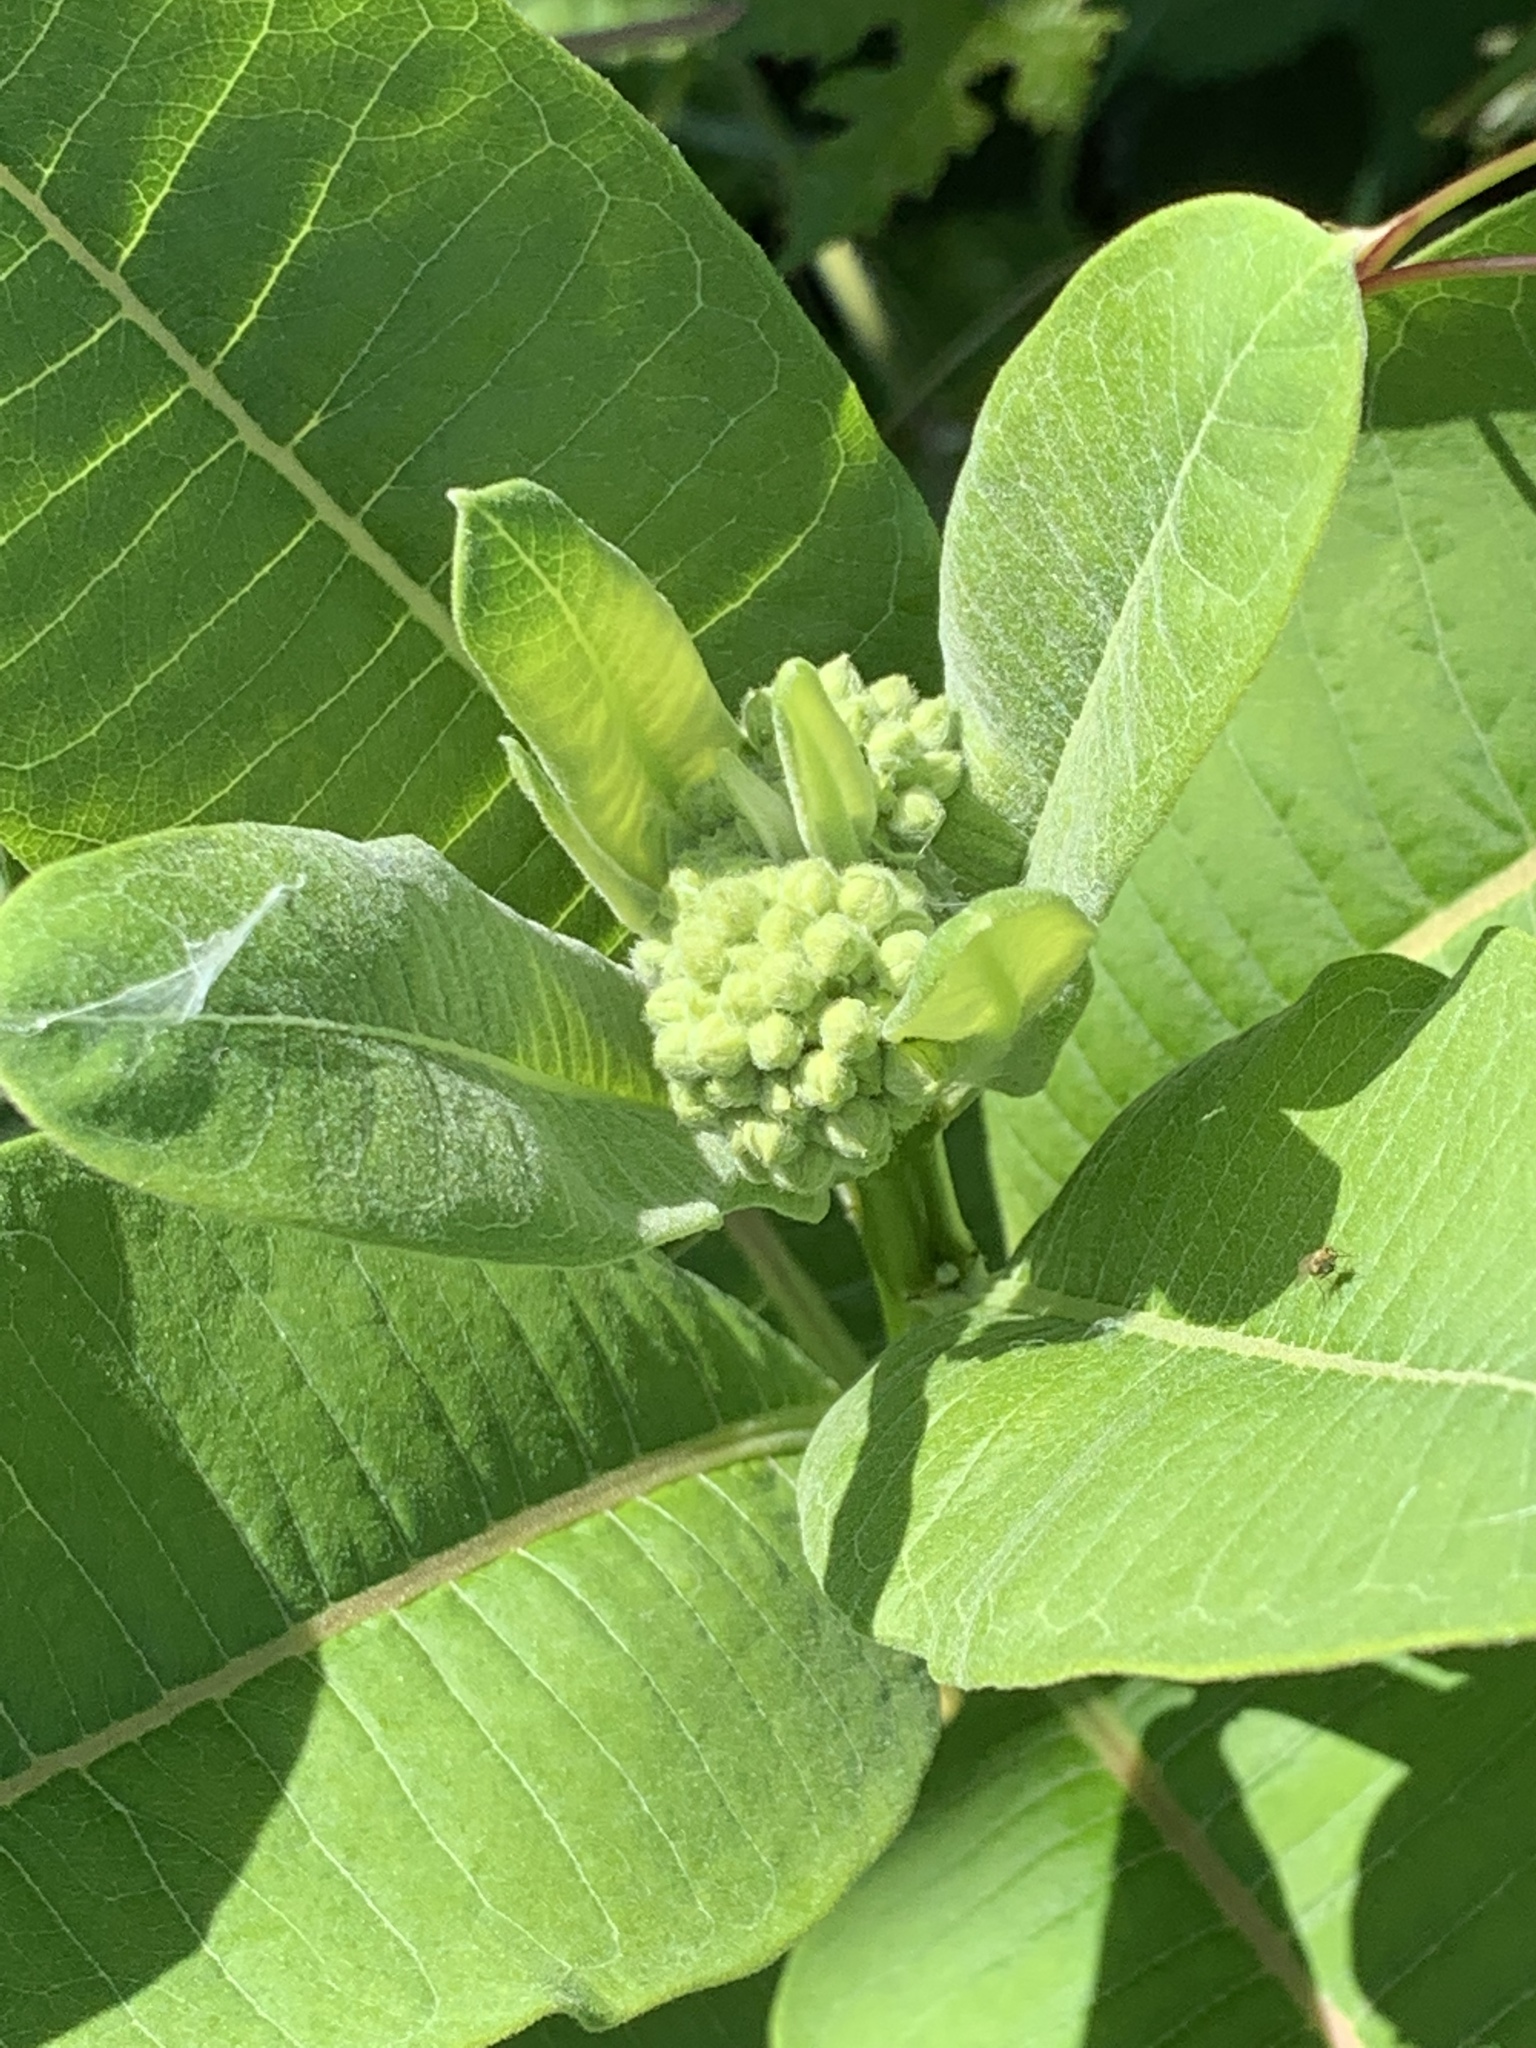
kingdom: Plantae
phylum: Tracheophyta
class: Magnoliopsida
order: Gentianales
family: Apocynaceae
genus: Asclepias
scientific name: Asclepias syriaca
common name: Common milkweed
